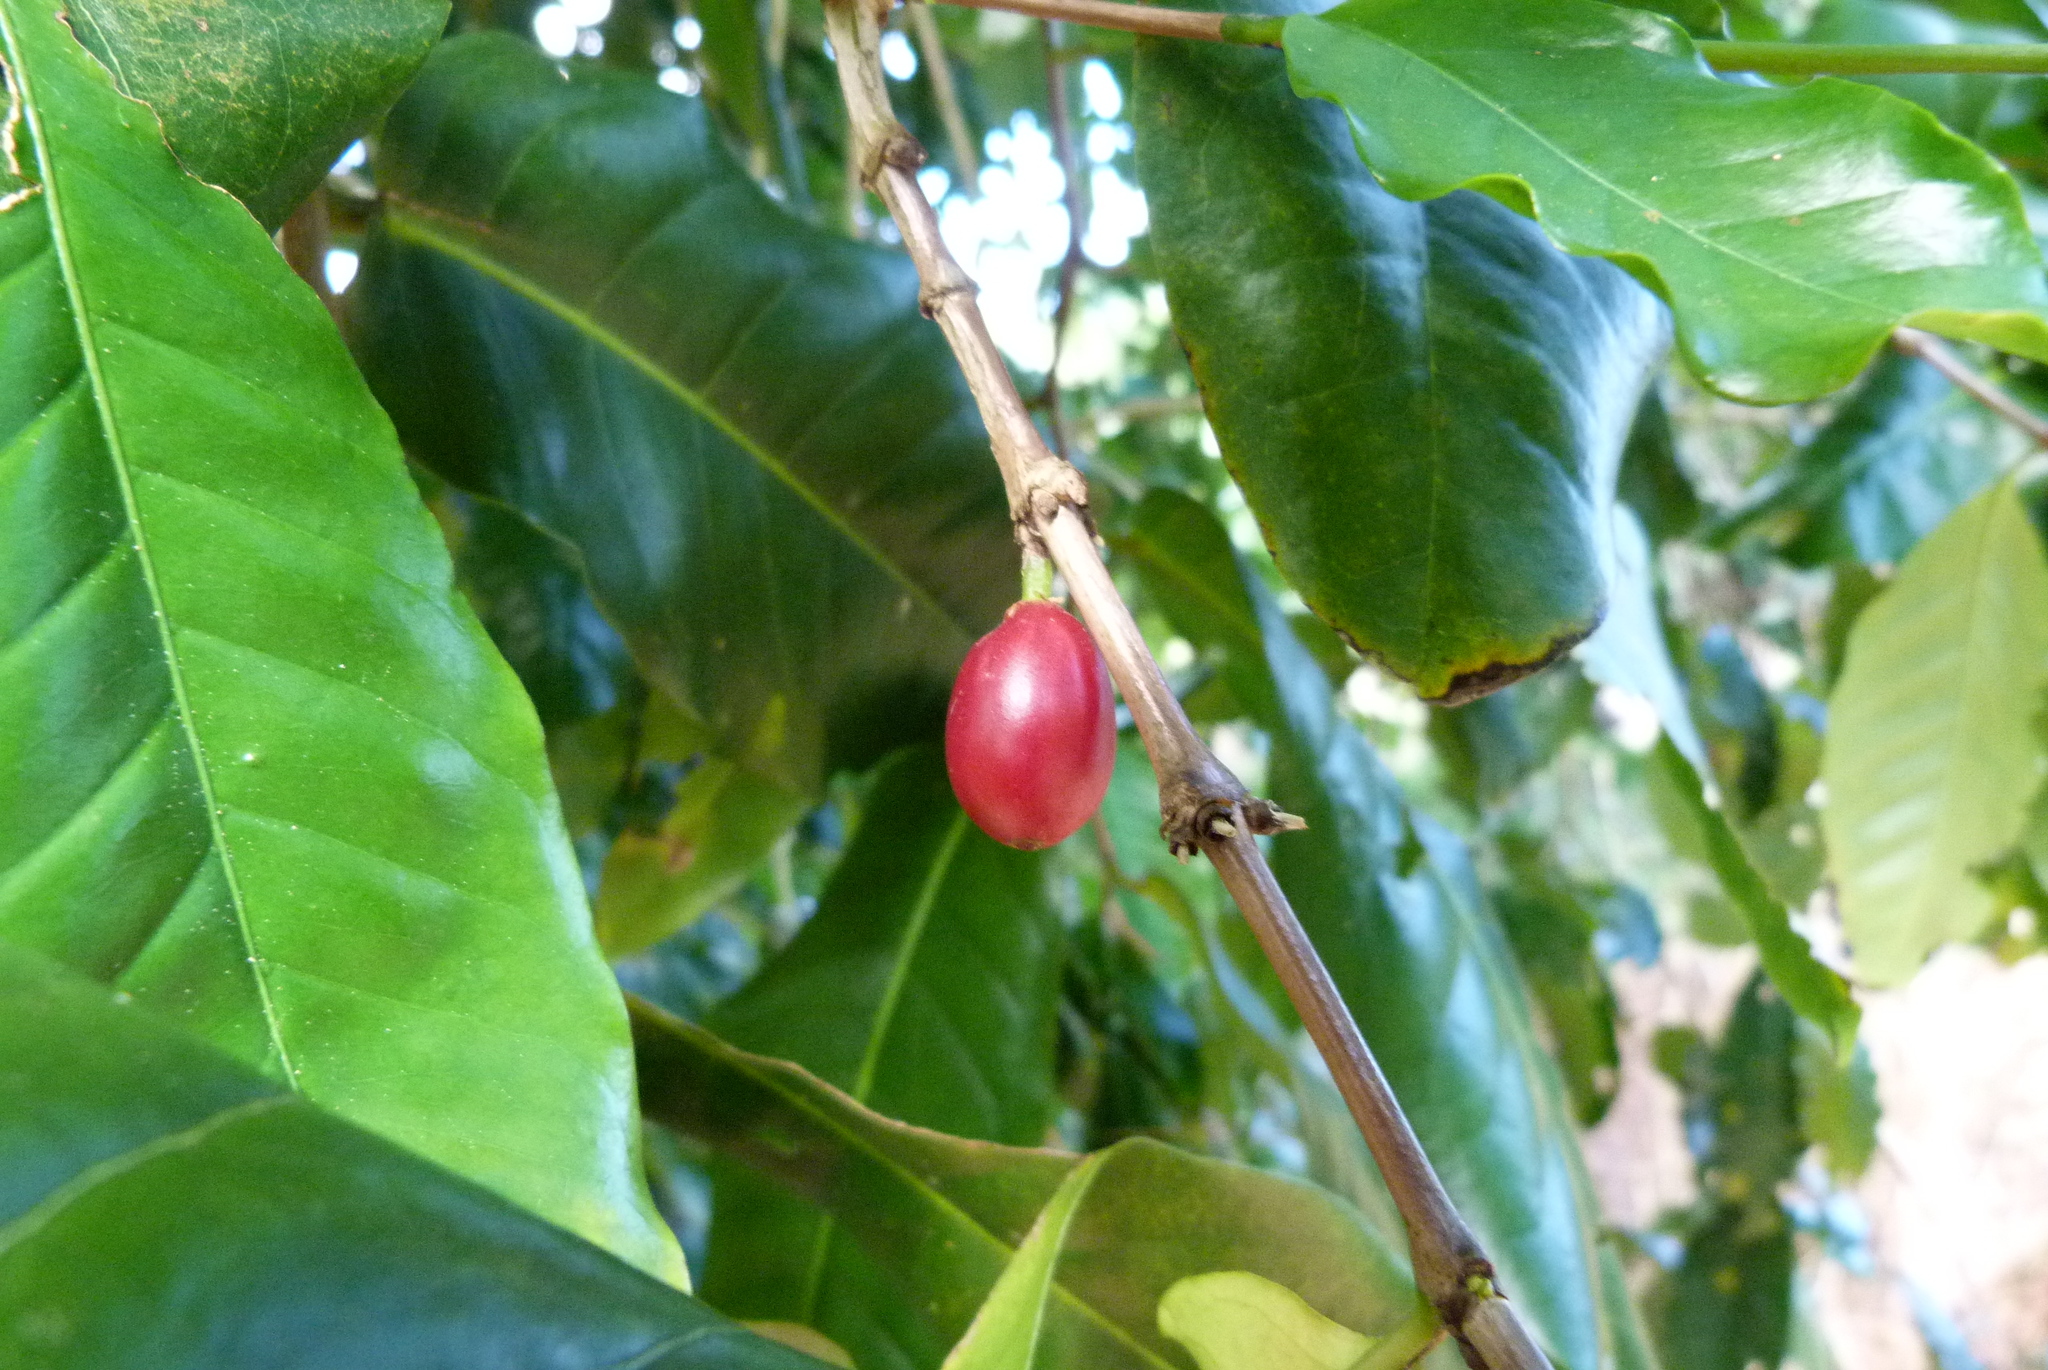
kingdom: Plantae
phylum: Tracheophyta
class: Magnoliopsida
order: Gentianales
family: Rubiaceae
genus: Coffea
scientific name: Coffea arabica
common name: Coffee
